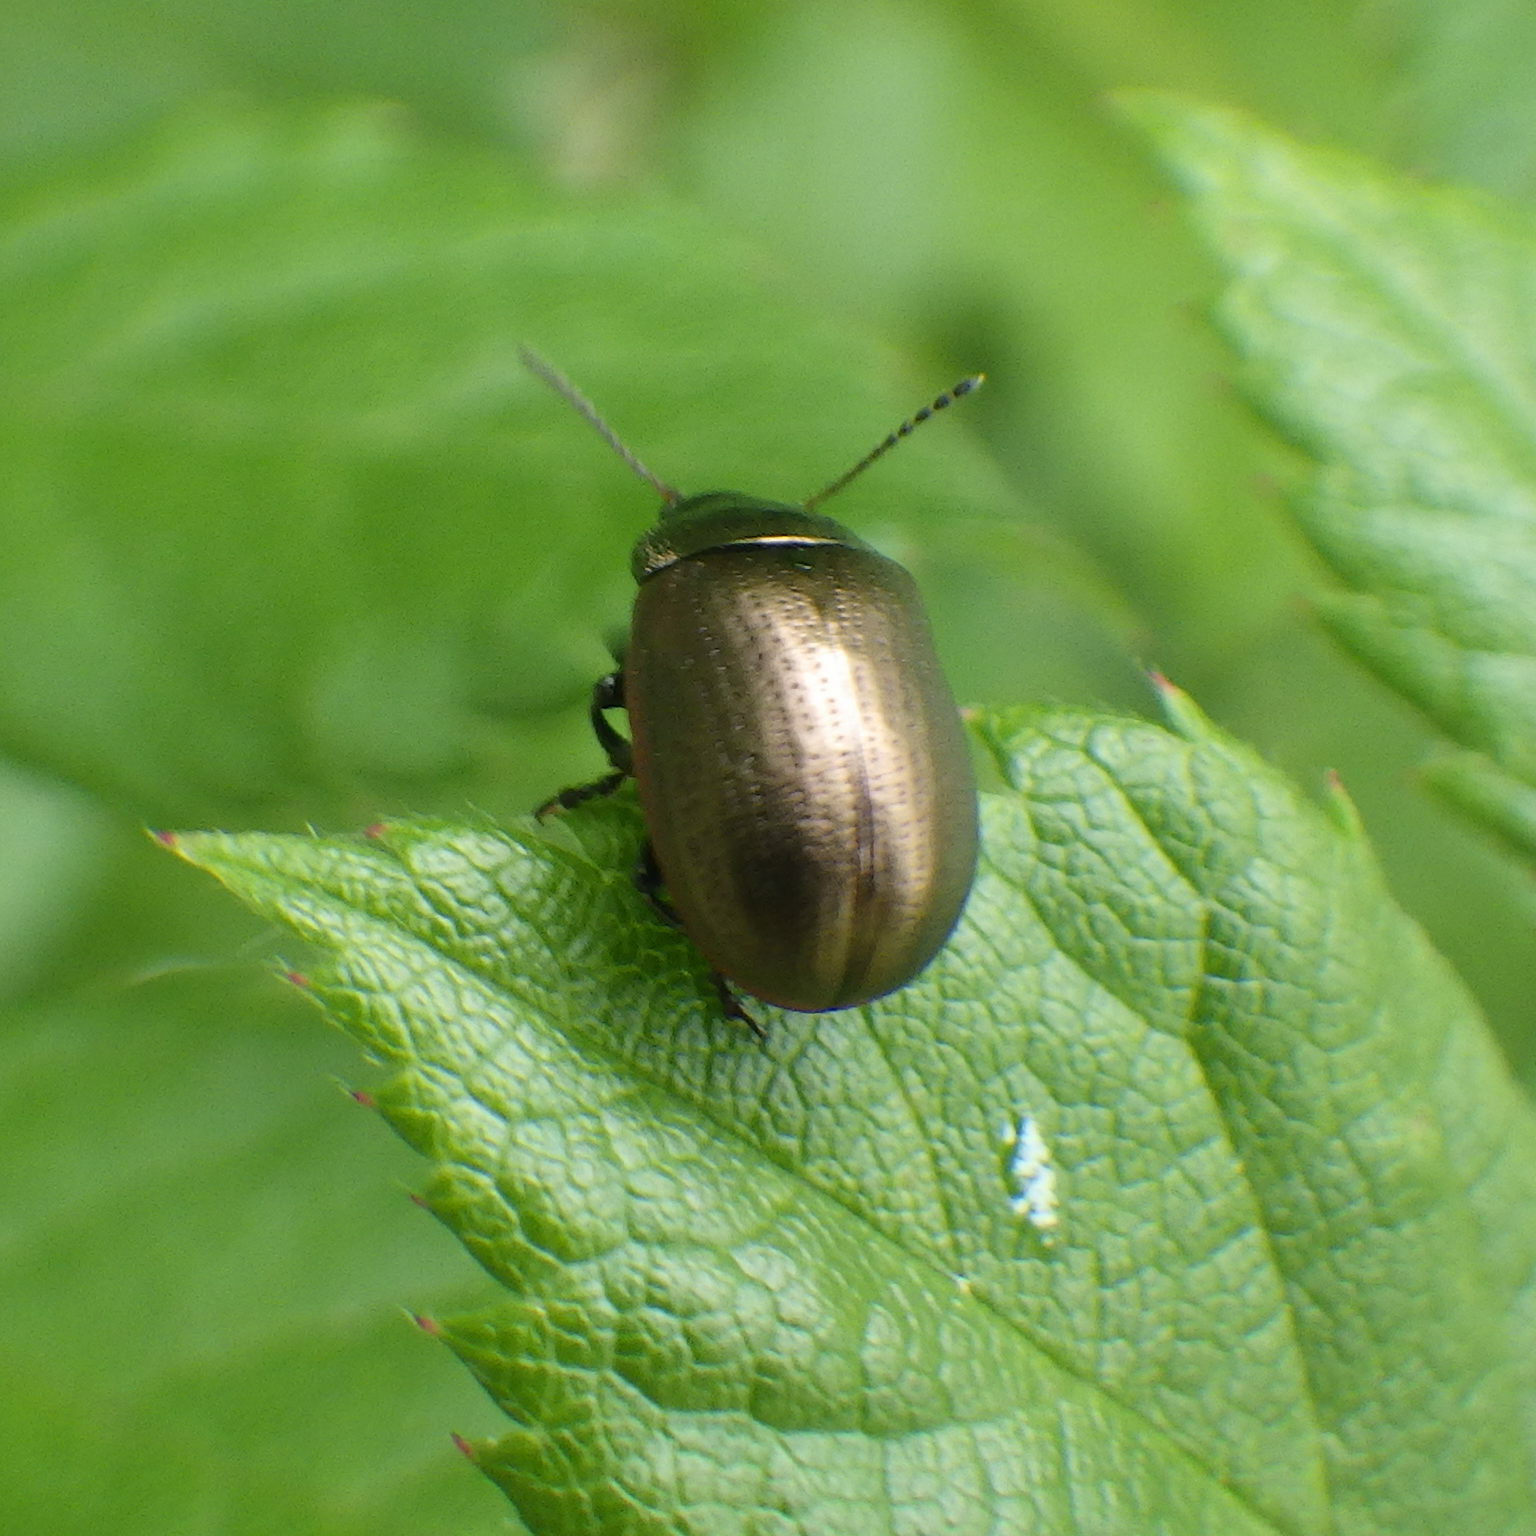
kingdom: Animalia
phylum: Arthropoda
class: Insecta
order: Coleoptera
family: Chrysomelidae
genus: Chrysolina
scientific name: Chrysolina marginata
